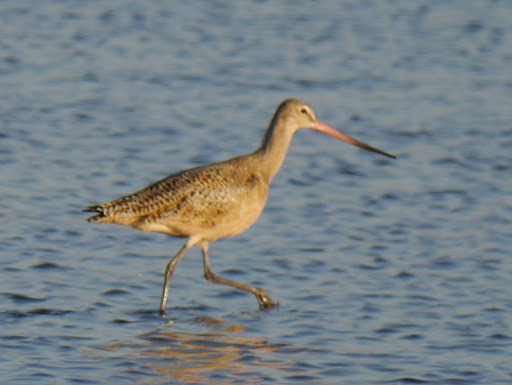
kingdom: Animalia
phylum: Chordata
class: Aves
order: Charadriiformes
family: Scolopacidae
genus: Limosa
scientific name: Limosa fedoa
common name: Marbled godwit
